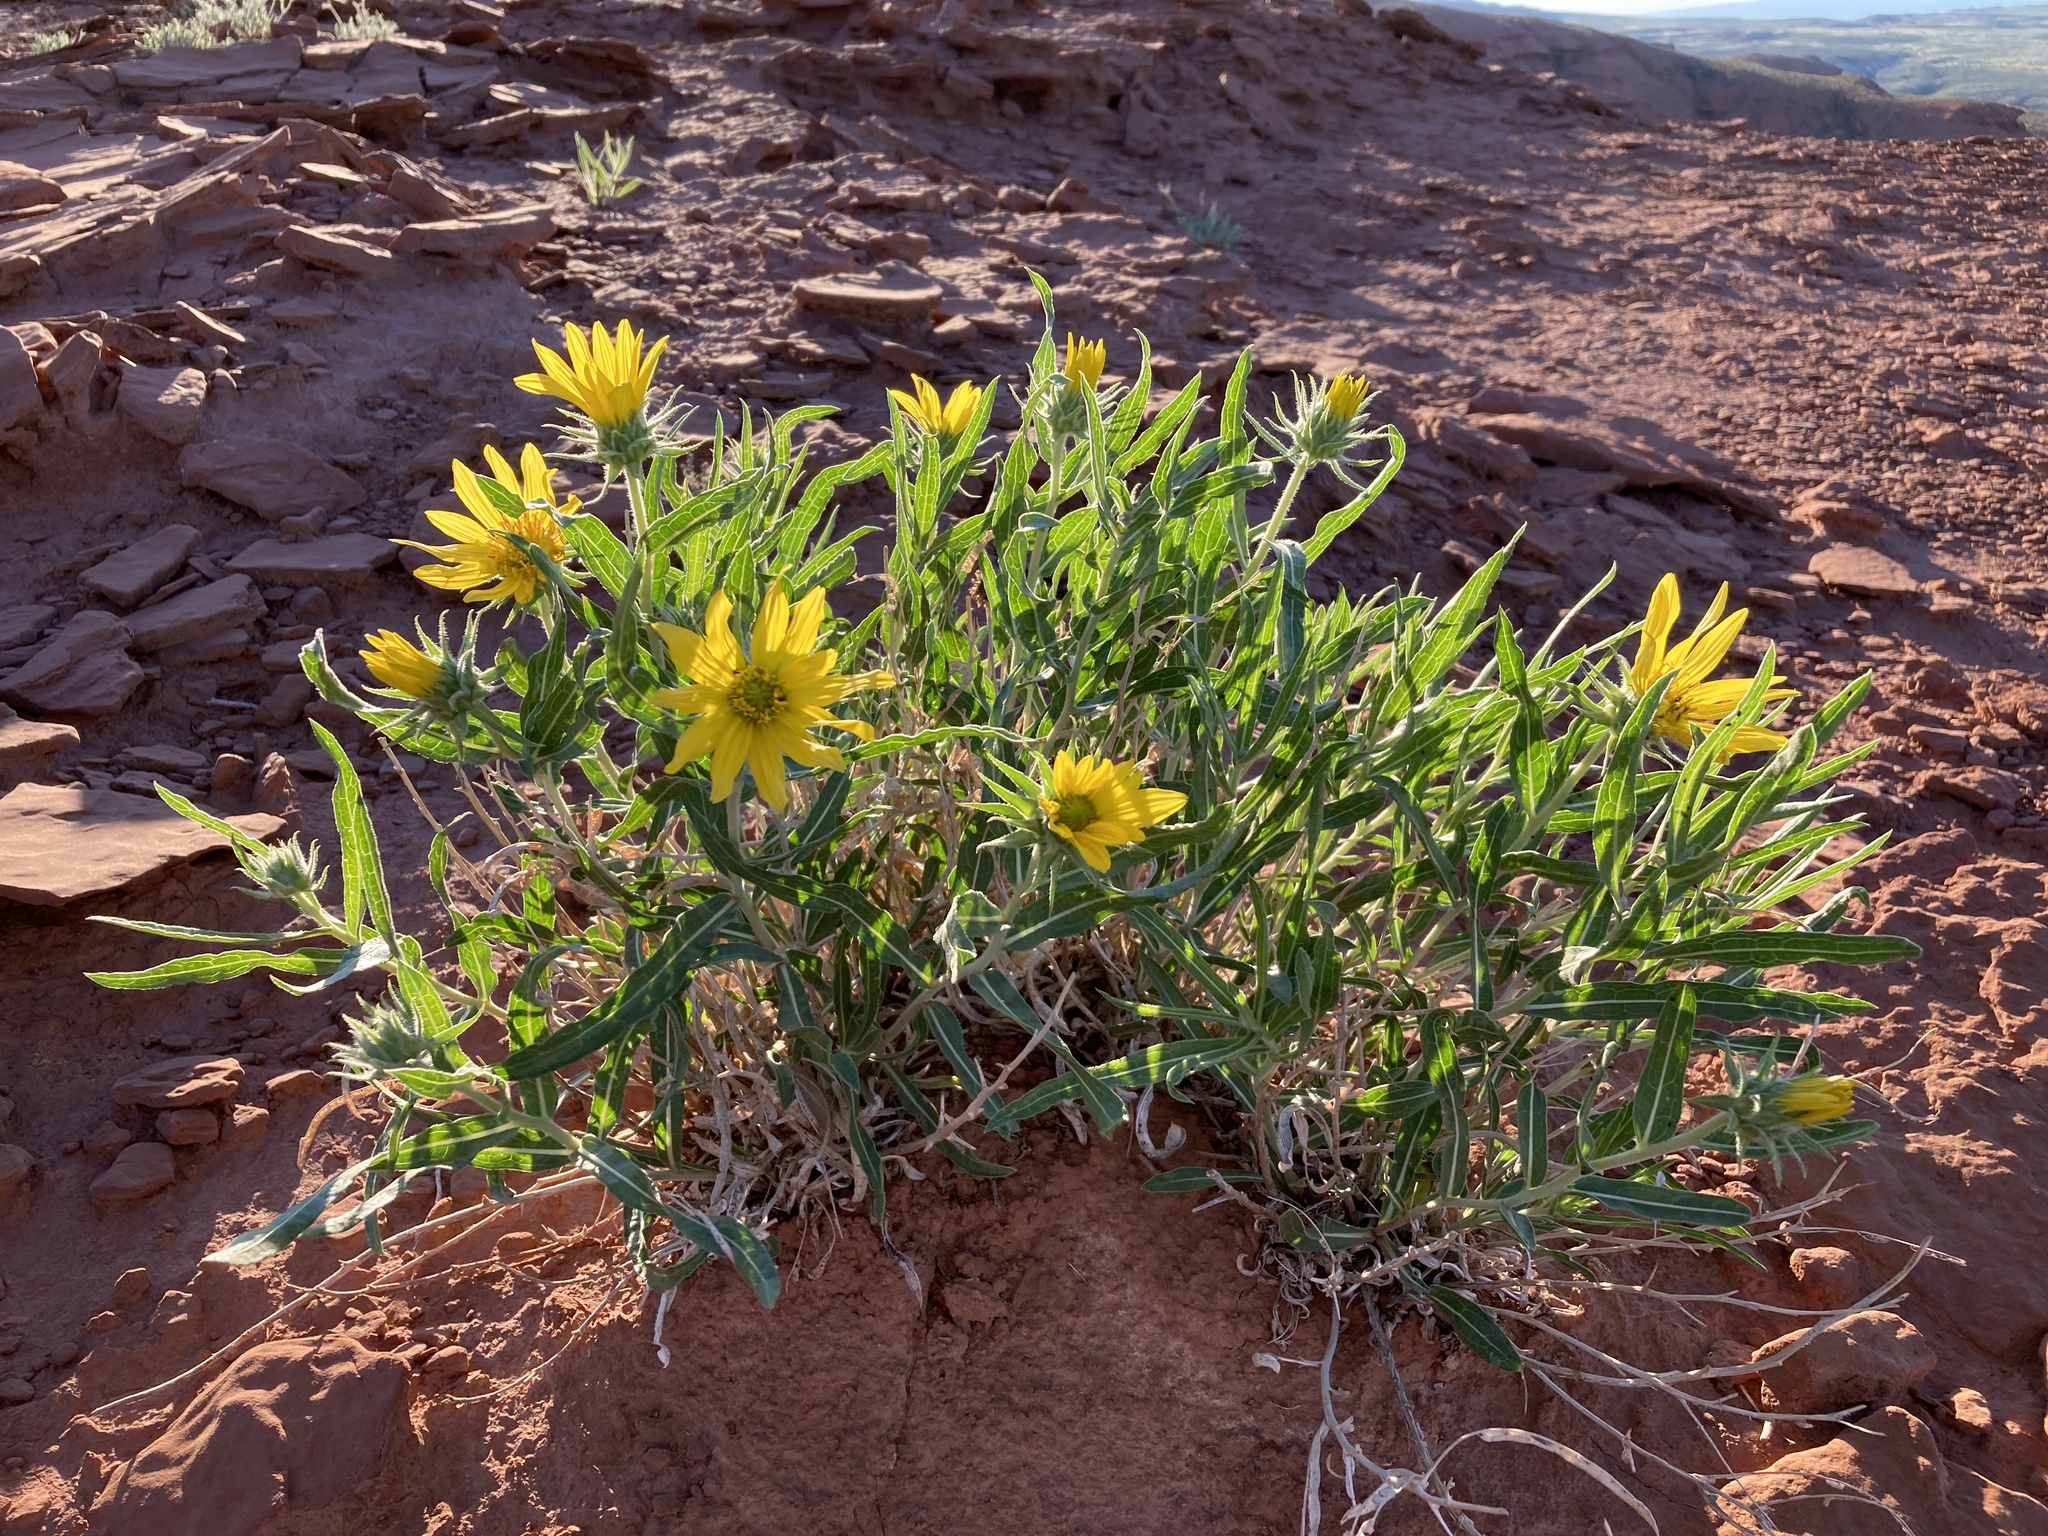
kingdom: Plantae
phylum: Tracheophyta
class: Magnoliopsida
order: Asterales
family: Asteraceae
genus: Scabrethia
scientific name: Scabrethia scabra
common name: Rough mules's-ears
